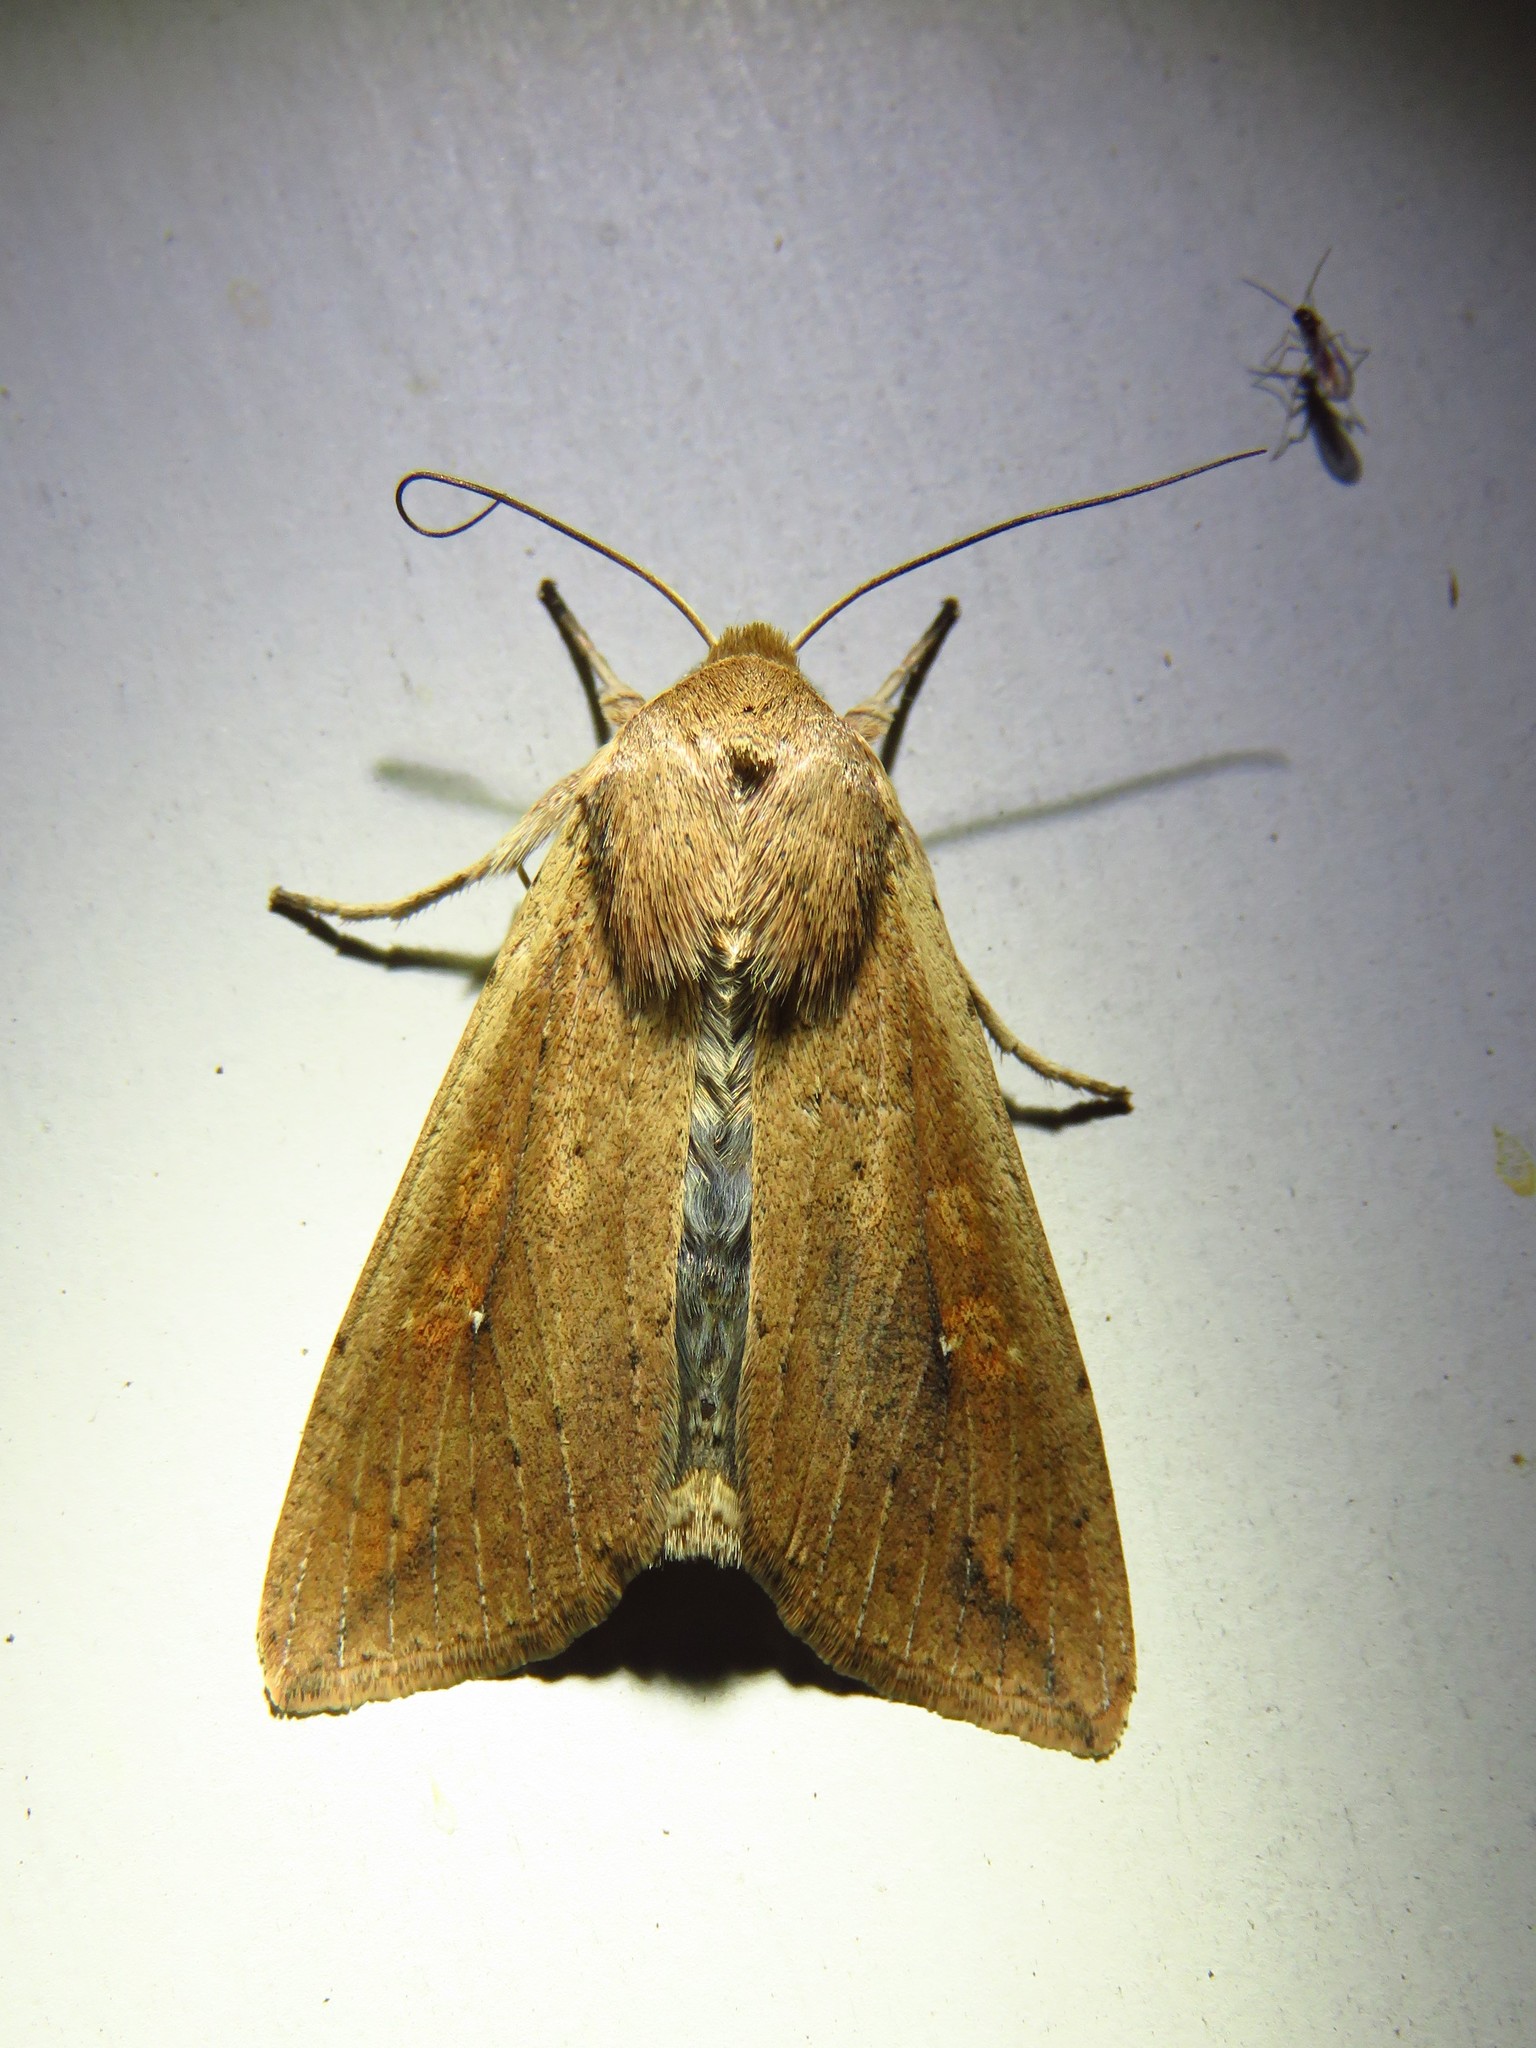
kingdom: Animalia
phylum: Arthropoda
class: Insecta
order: Lepidoptera
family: Noctuidae
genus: Mythimna
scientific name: Mythimna unipuncta
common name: White-speck
